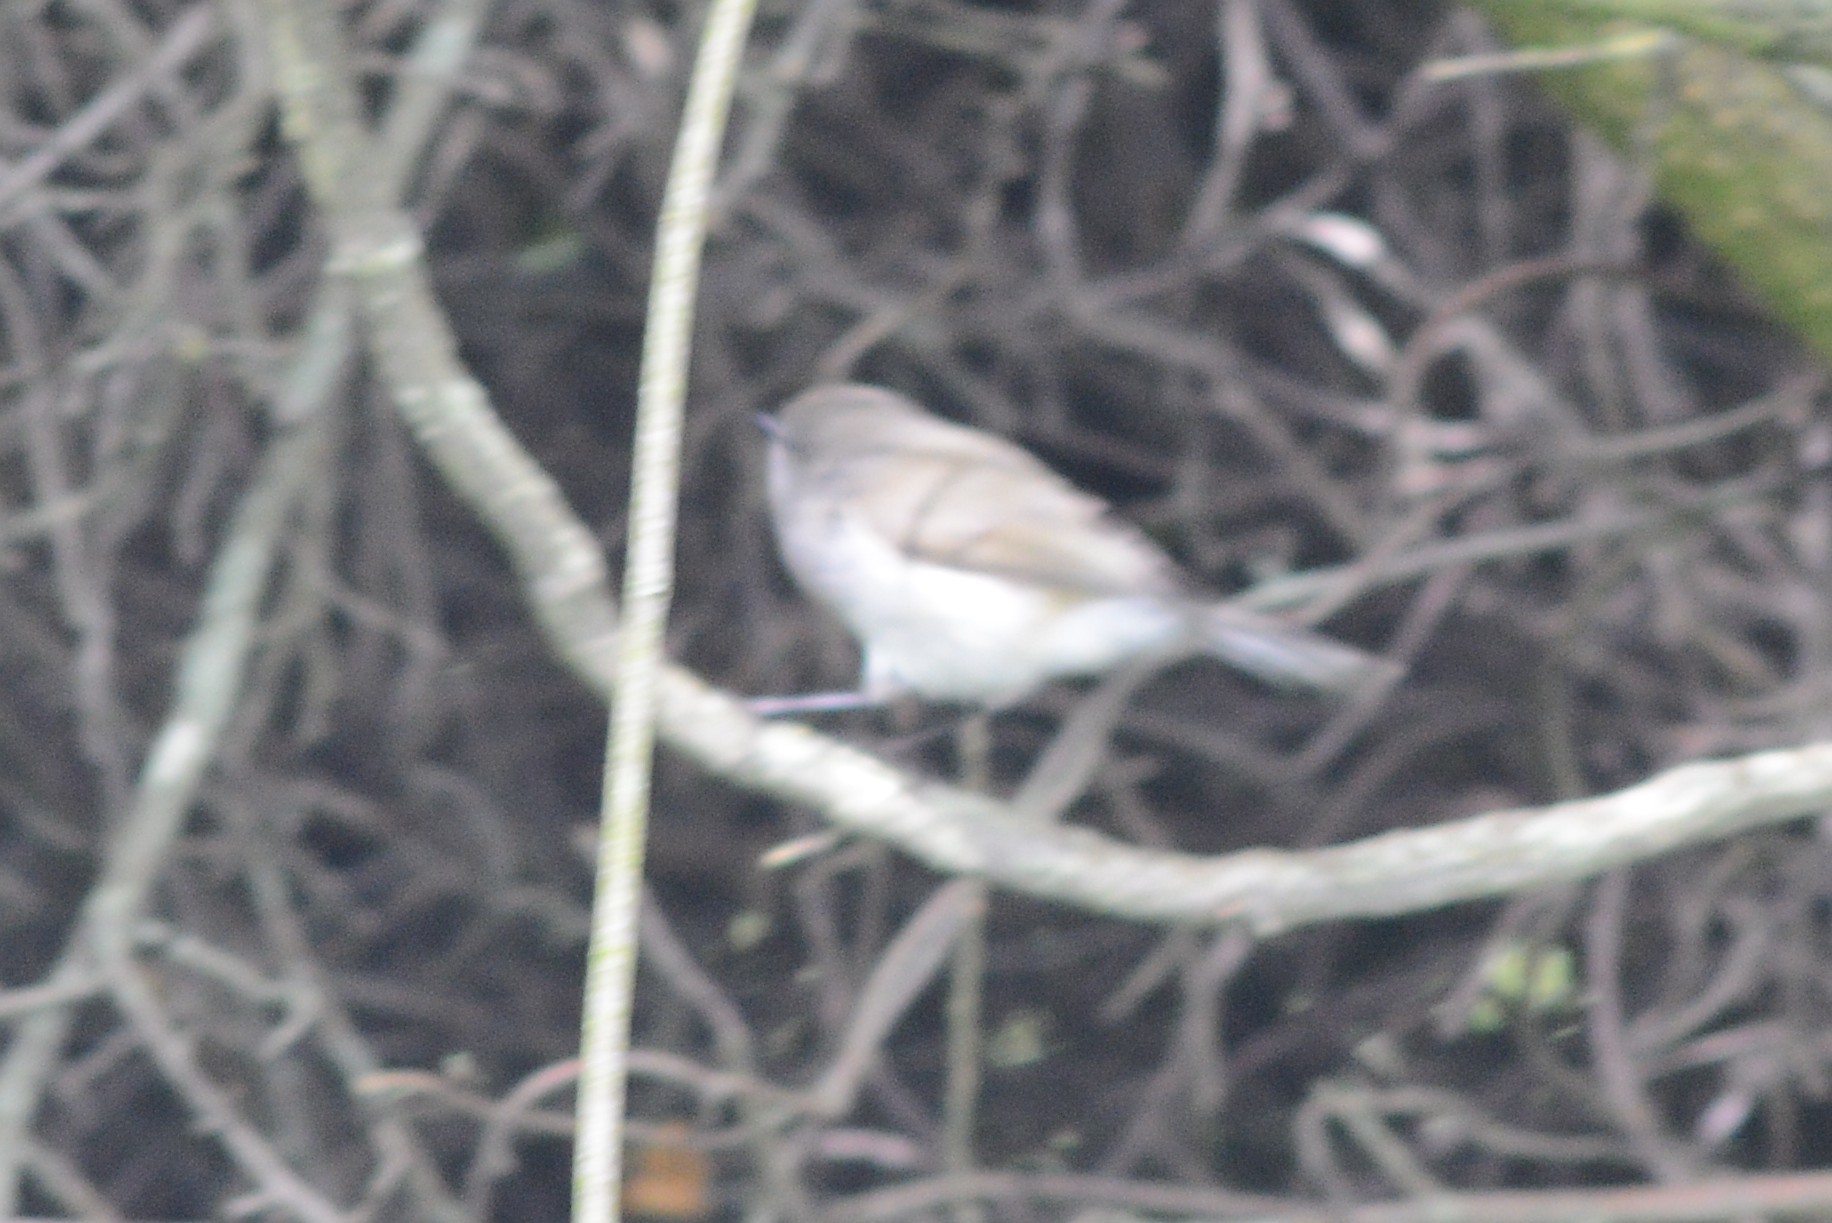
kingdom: Animalia
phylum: Chordata
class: Aves
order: Passeriformes
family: Acanthizidae
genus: Gerygone
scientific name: Gerygone igata
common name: Grey gerygone
